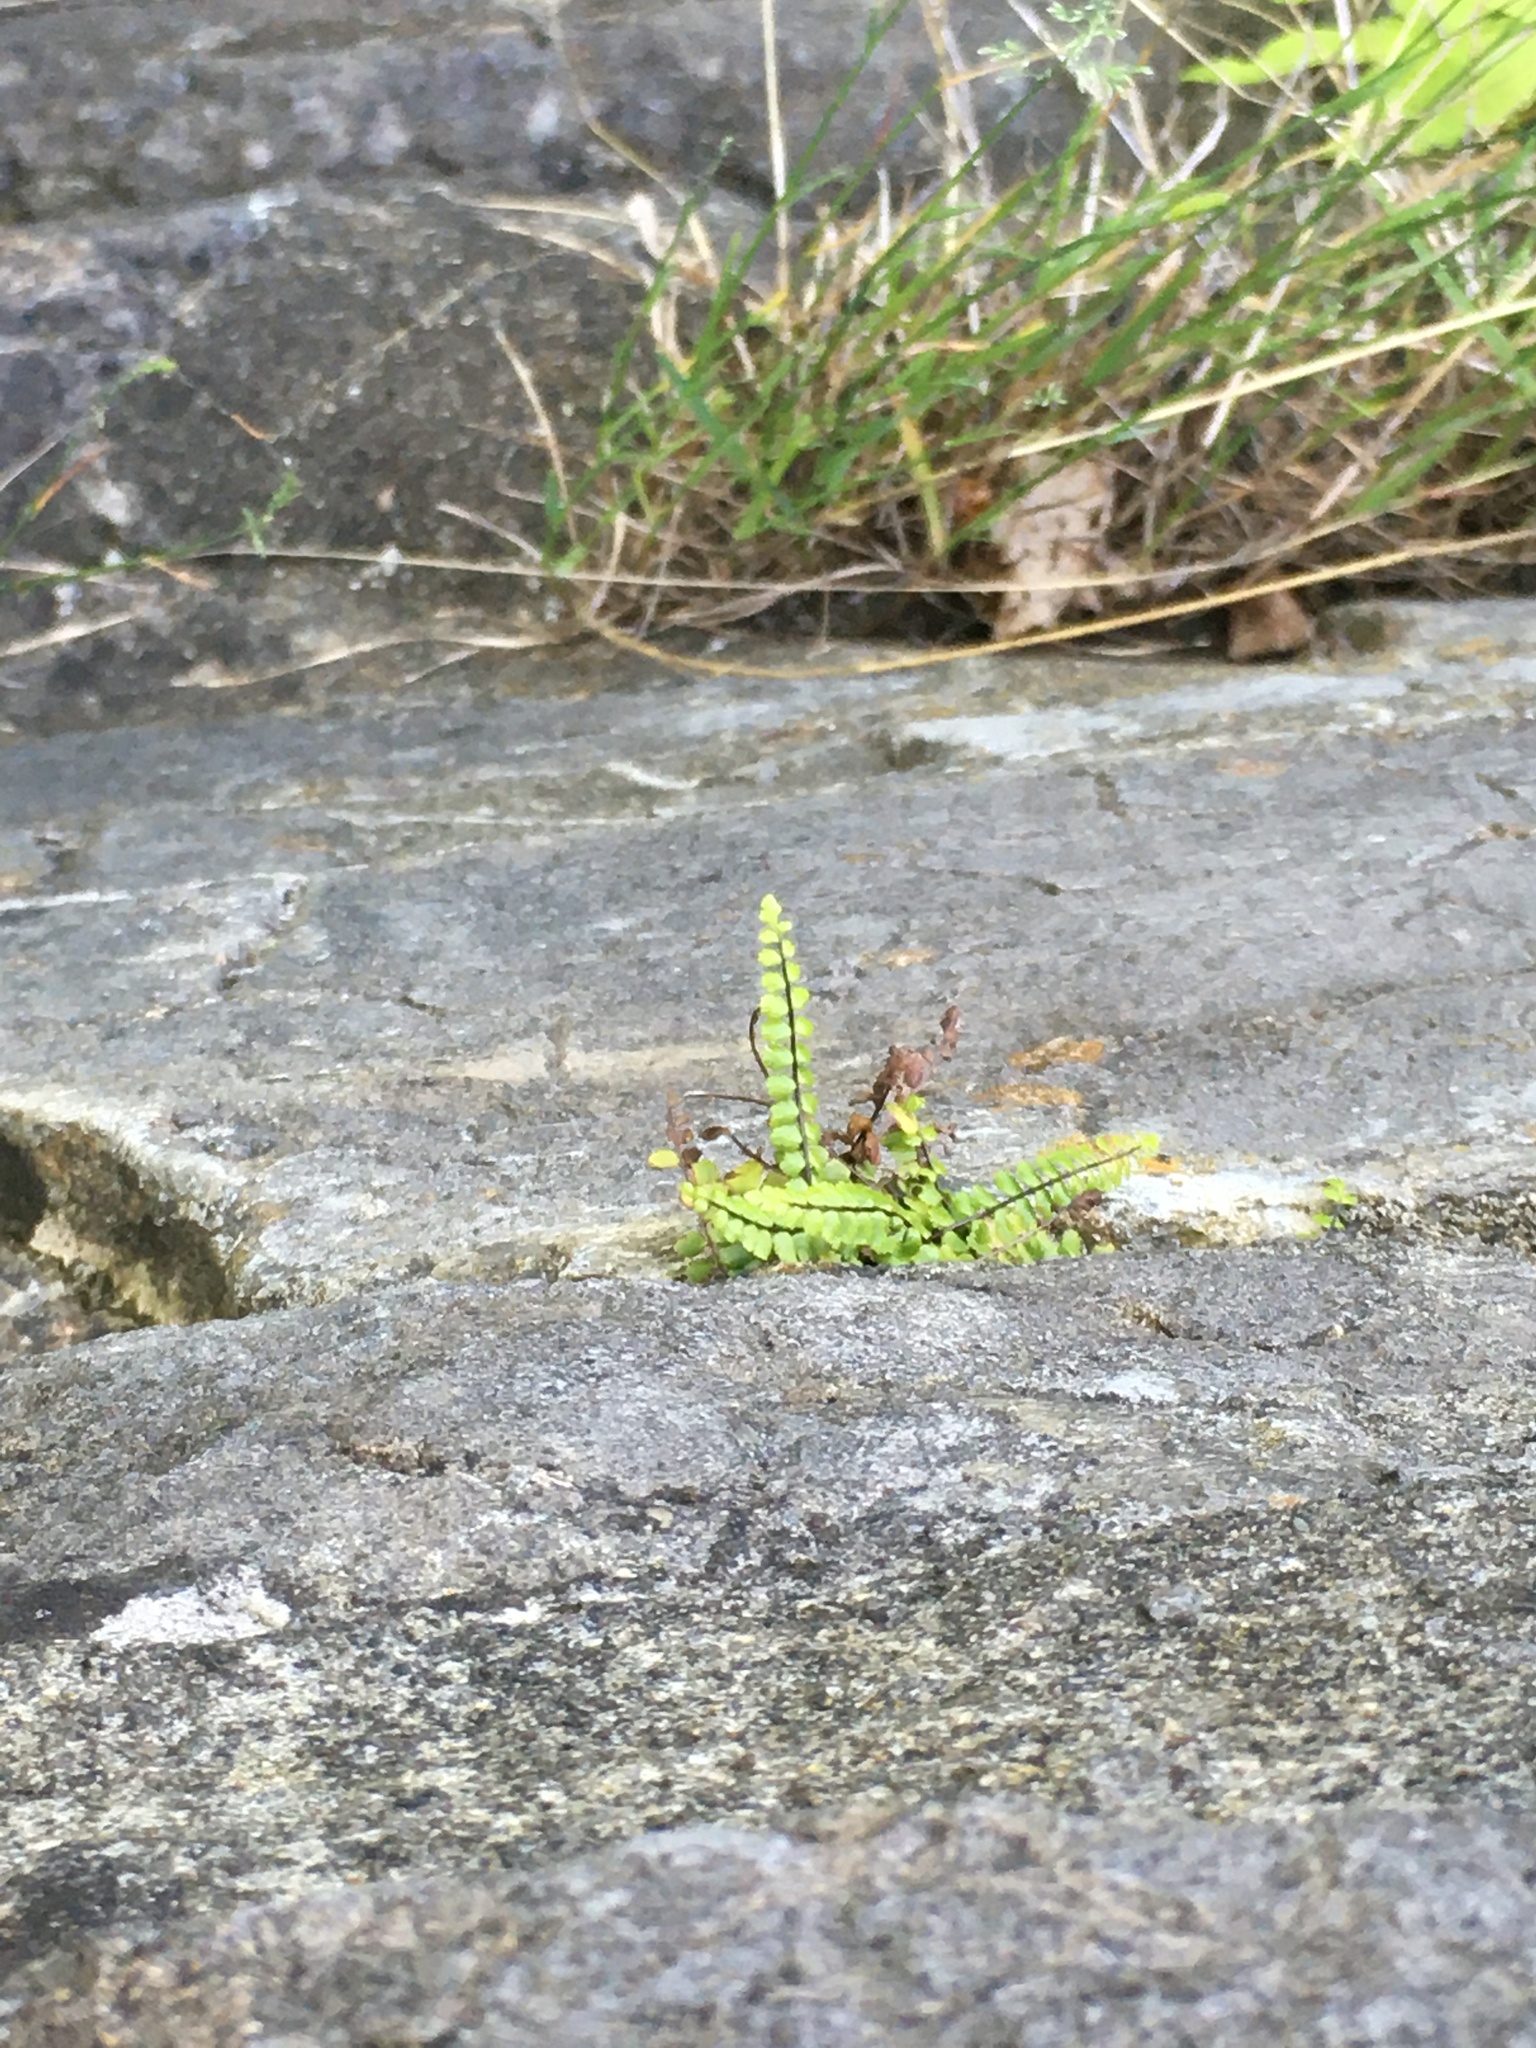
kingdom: Plantae
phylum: Tracheophyta
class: Polypodiopsida
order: Polypodiales
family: Aspleniaceae
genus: Asplenium
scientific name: Asplenium trichomanes
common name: Maidenhair spleenwort
